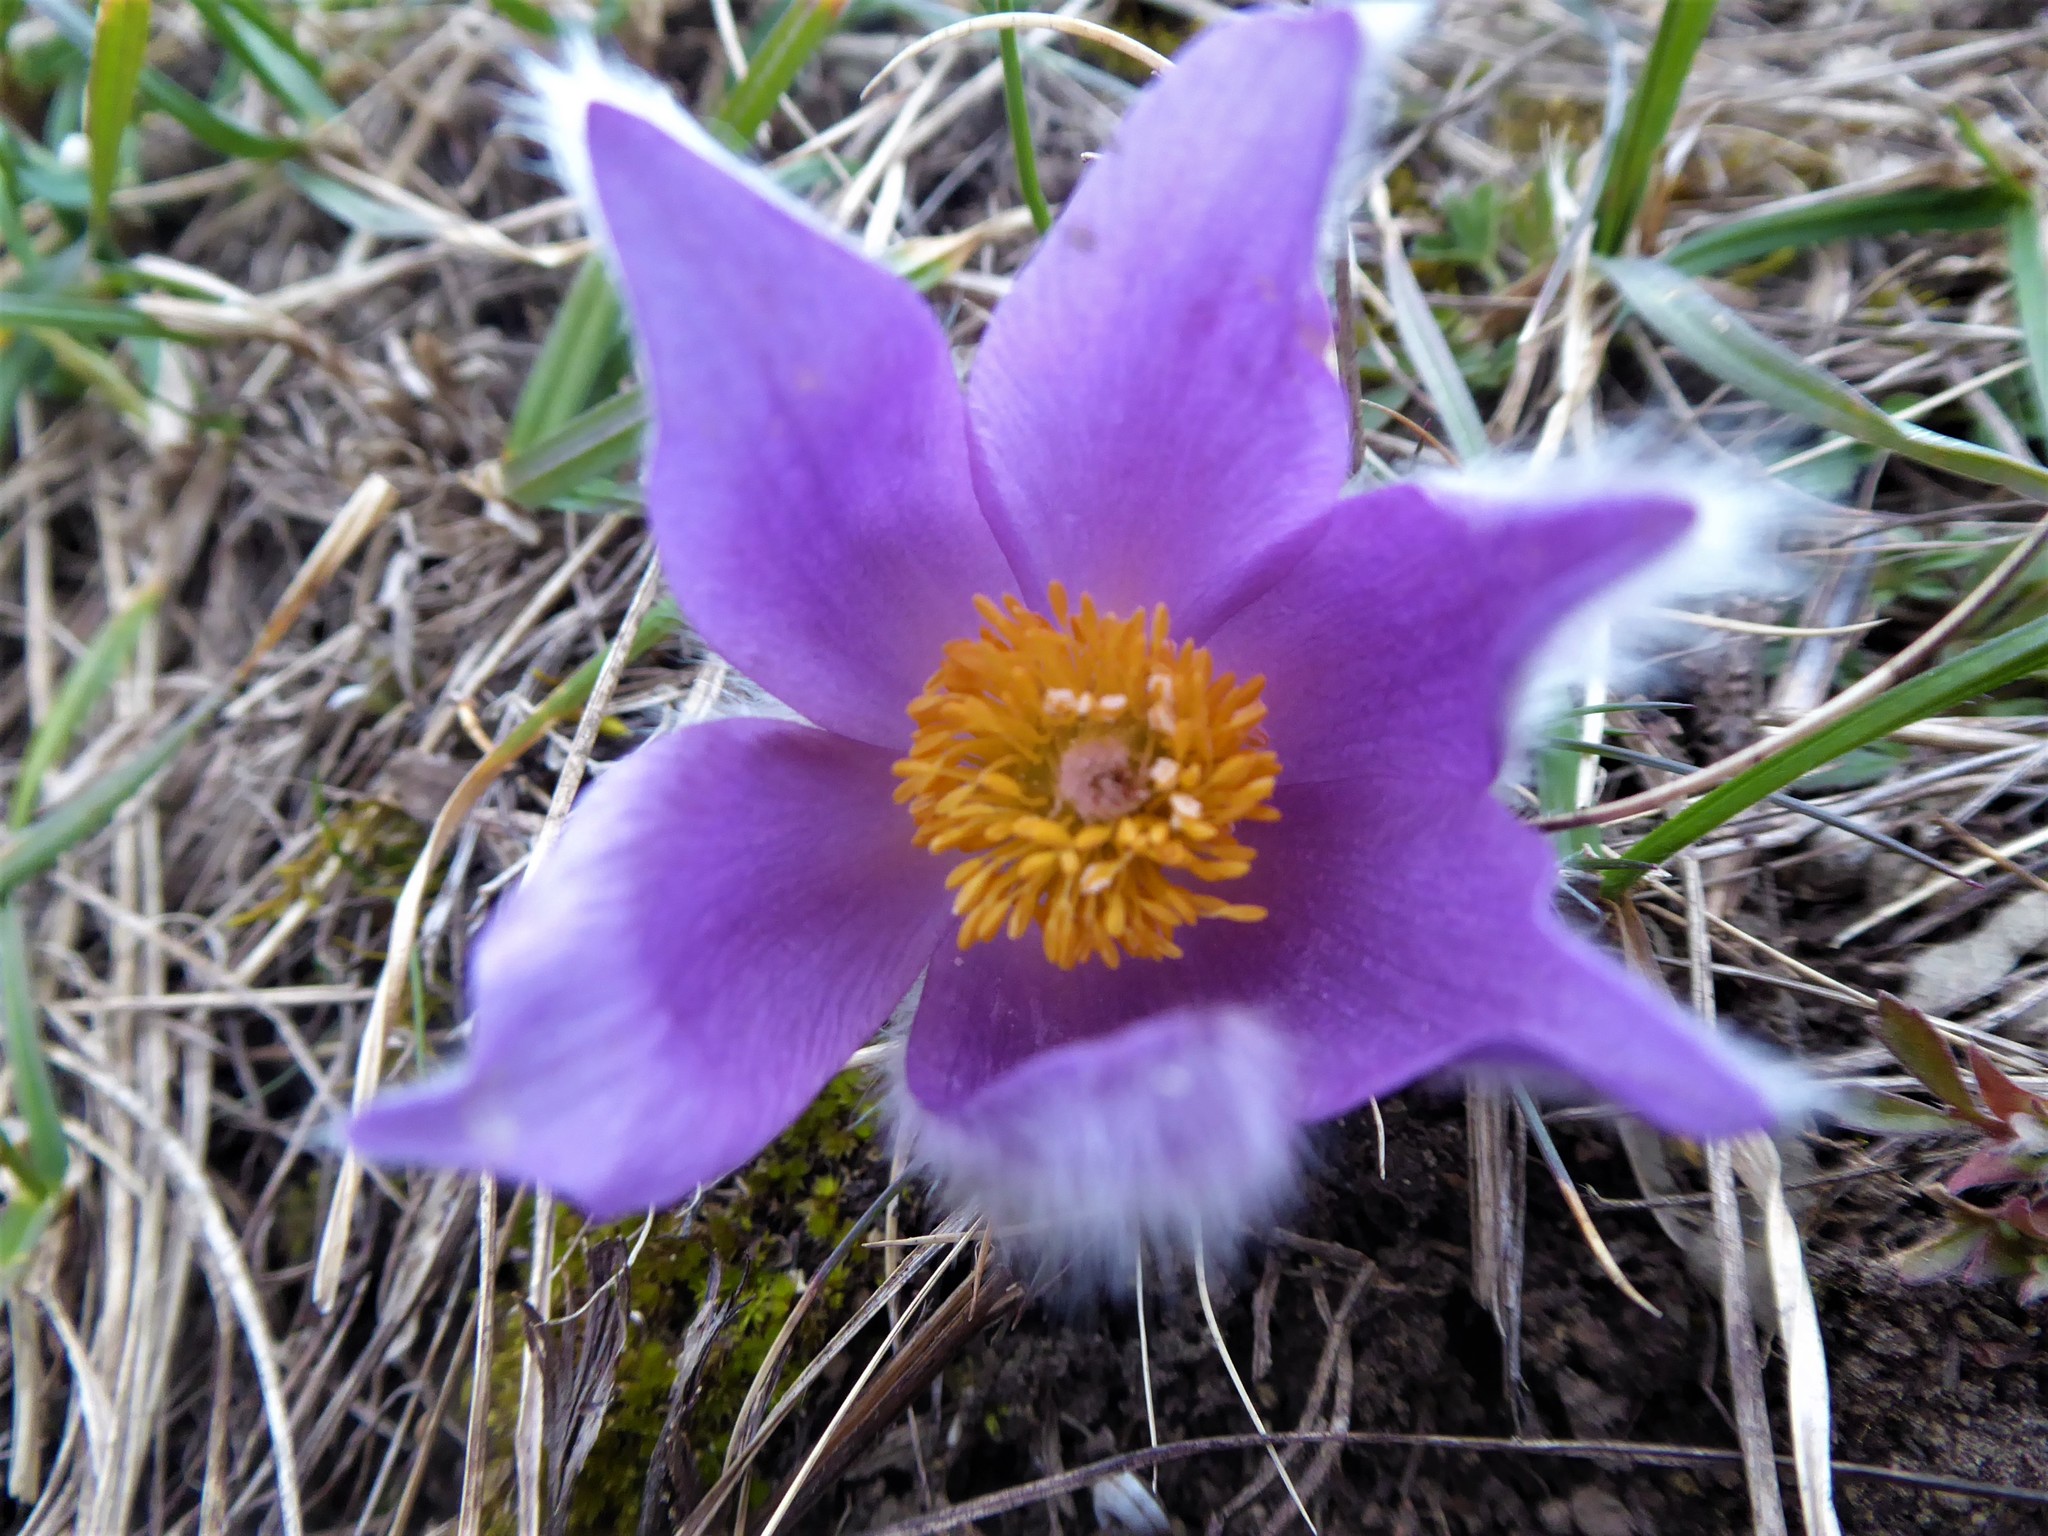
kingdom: Plantae
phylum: Tracheophyta
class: Magnoliopsida
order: Ranunculales
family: Ranunculaceae
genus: Pulsatilla
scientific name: Pulsatilla grandis
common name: Greater pasque flower
